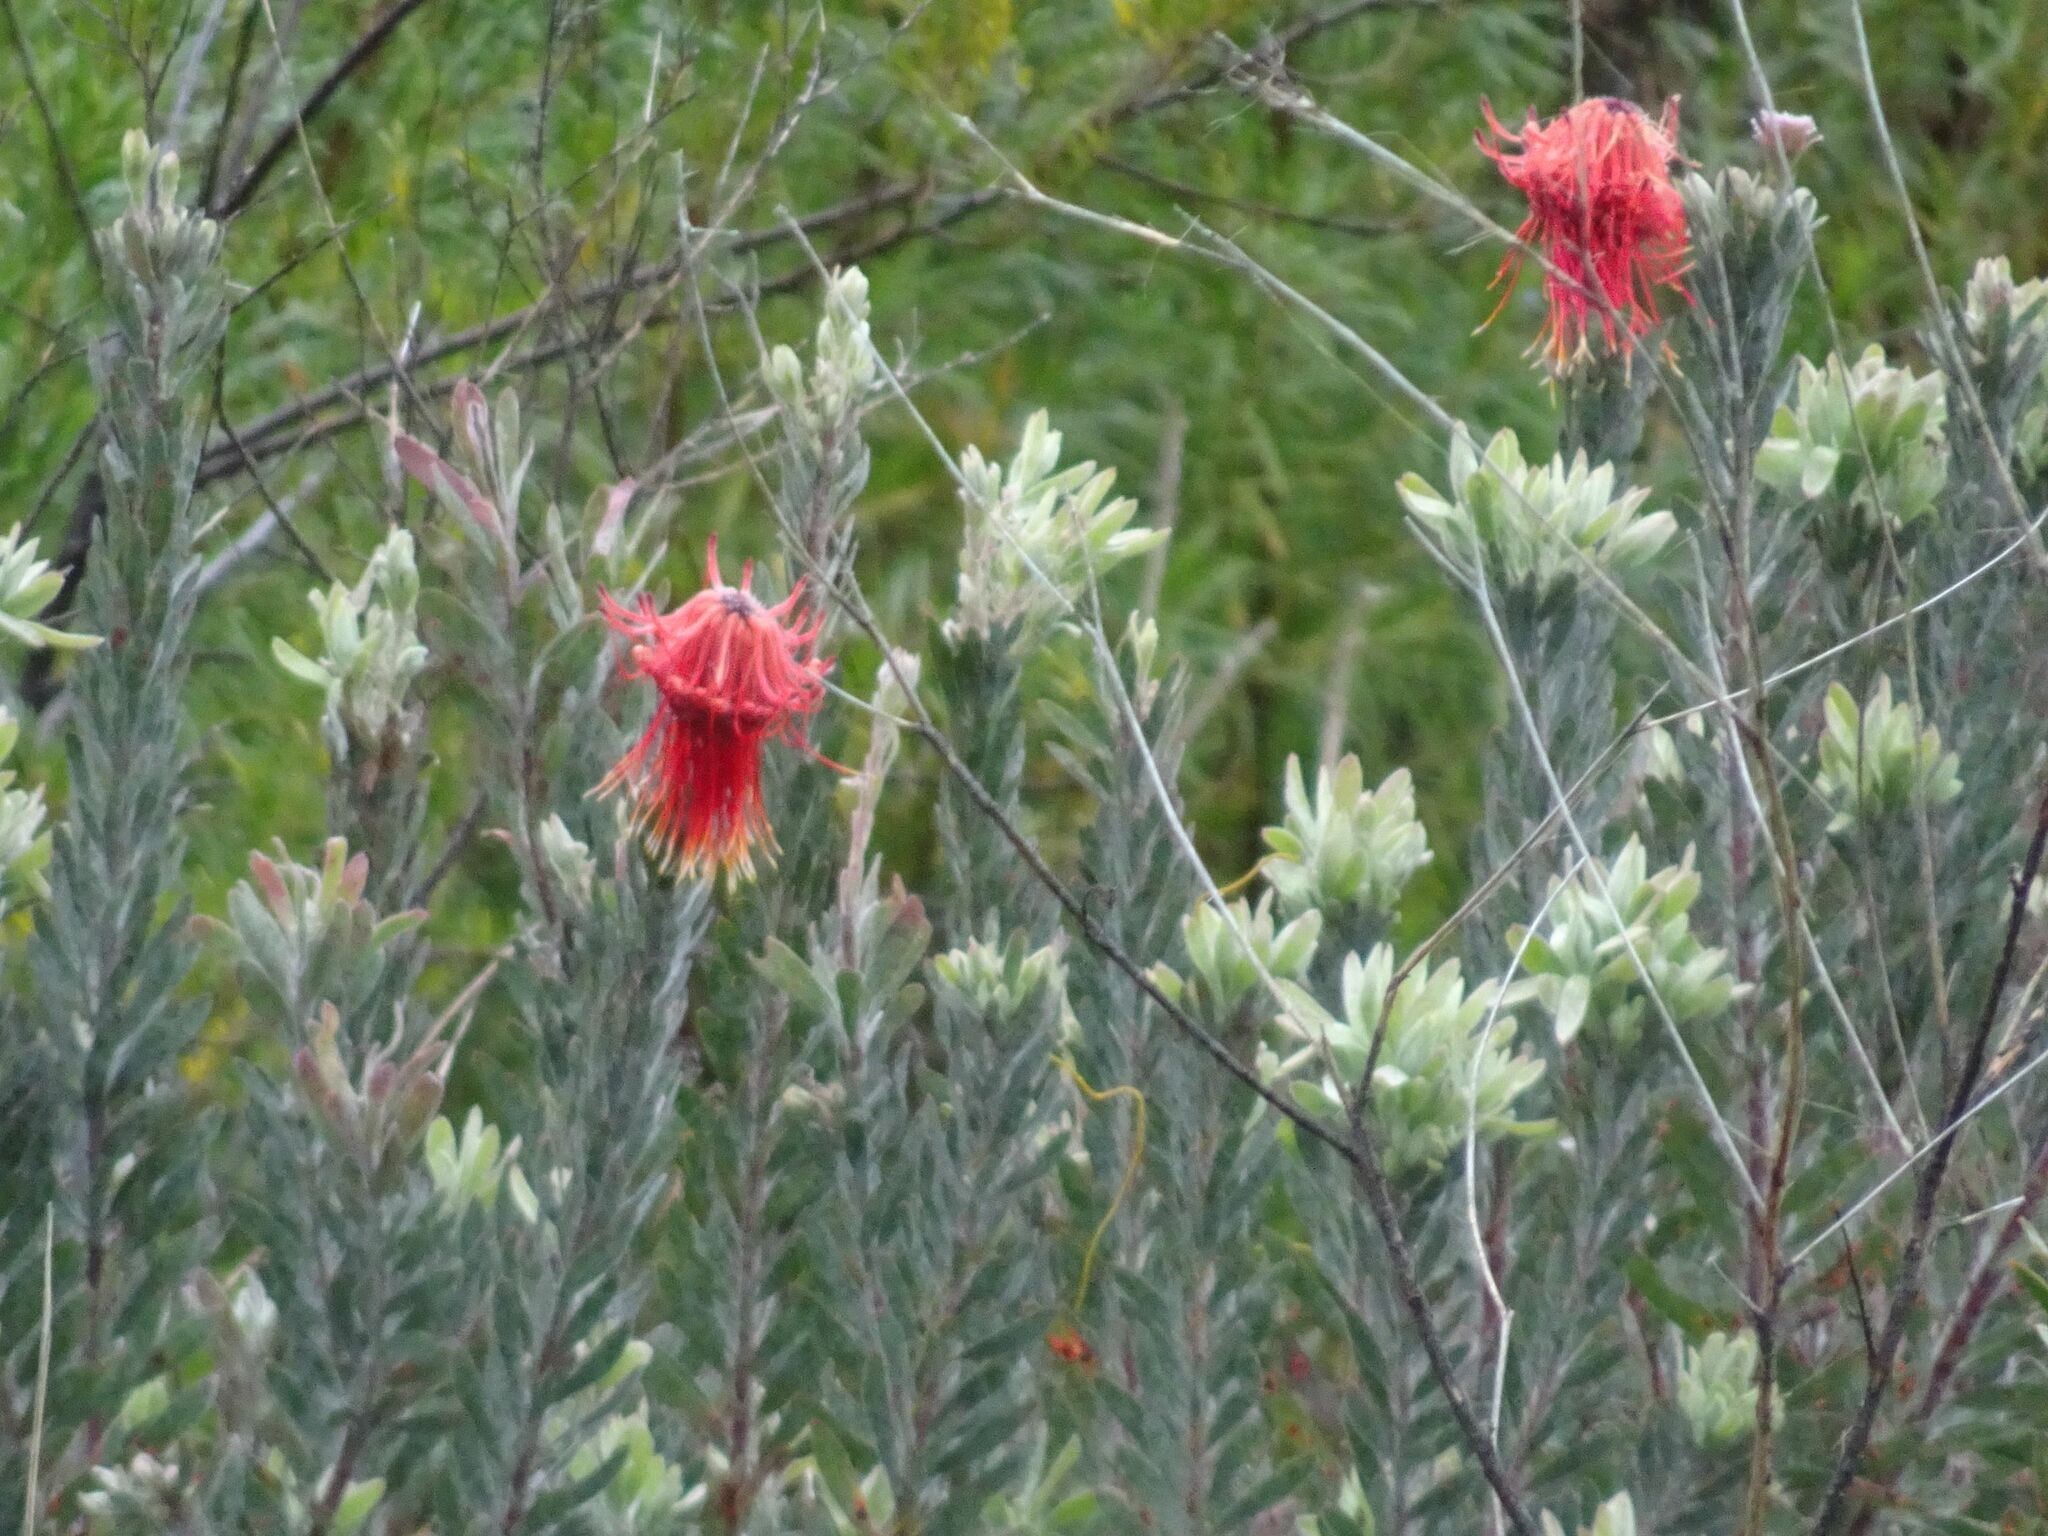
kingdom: Plantae
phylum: Tracheophyta
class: Magnoliopsida
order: Proteales
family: Proteaceae
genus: Leucospermum
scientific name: Leucospermum reflexum
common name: Rocket pincushion
